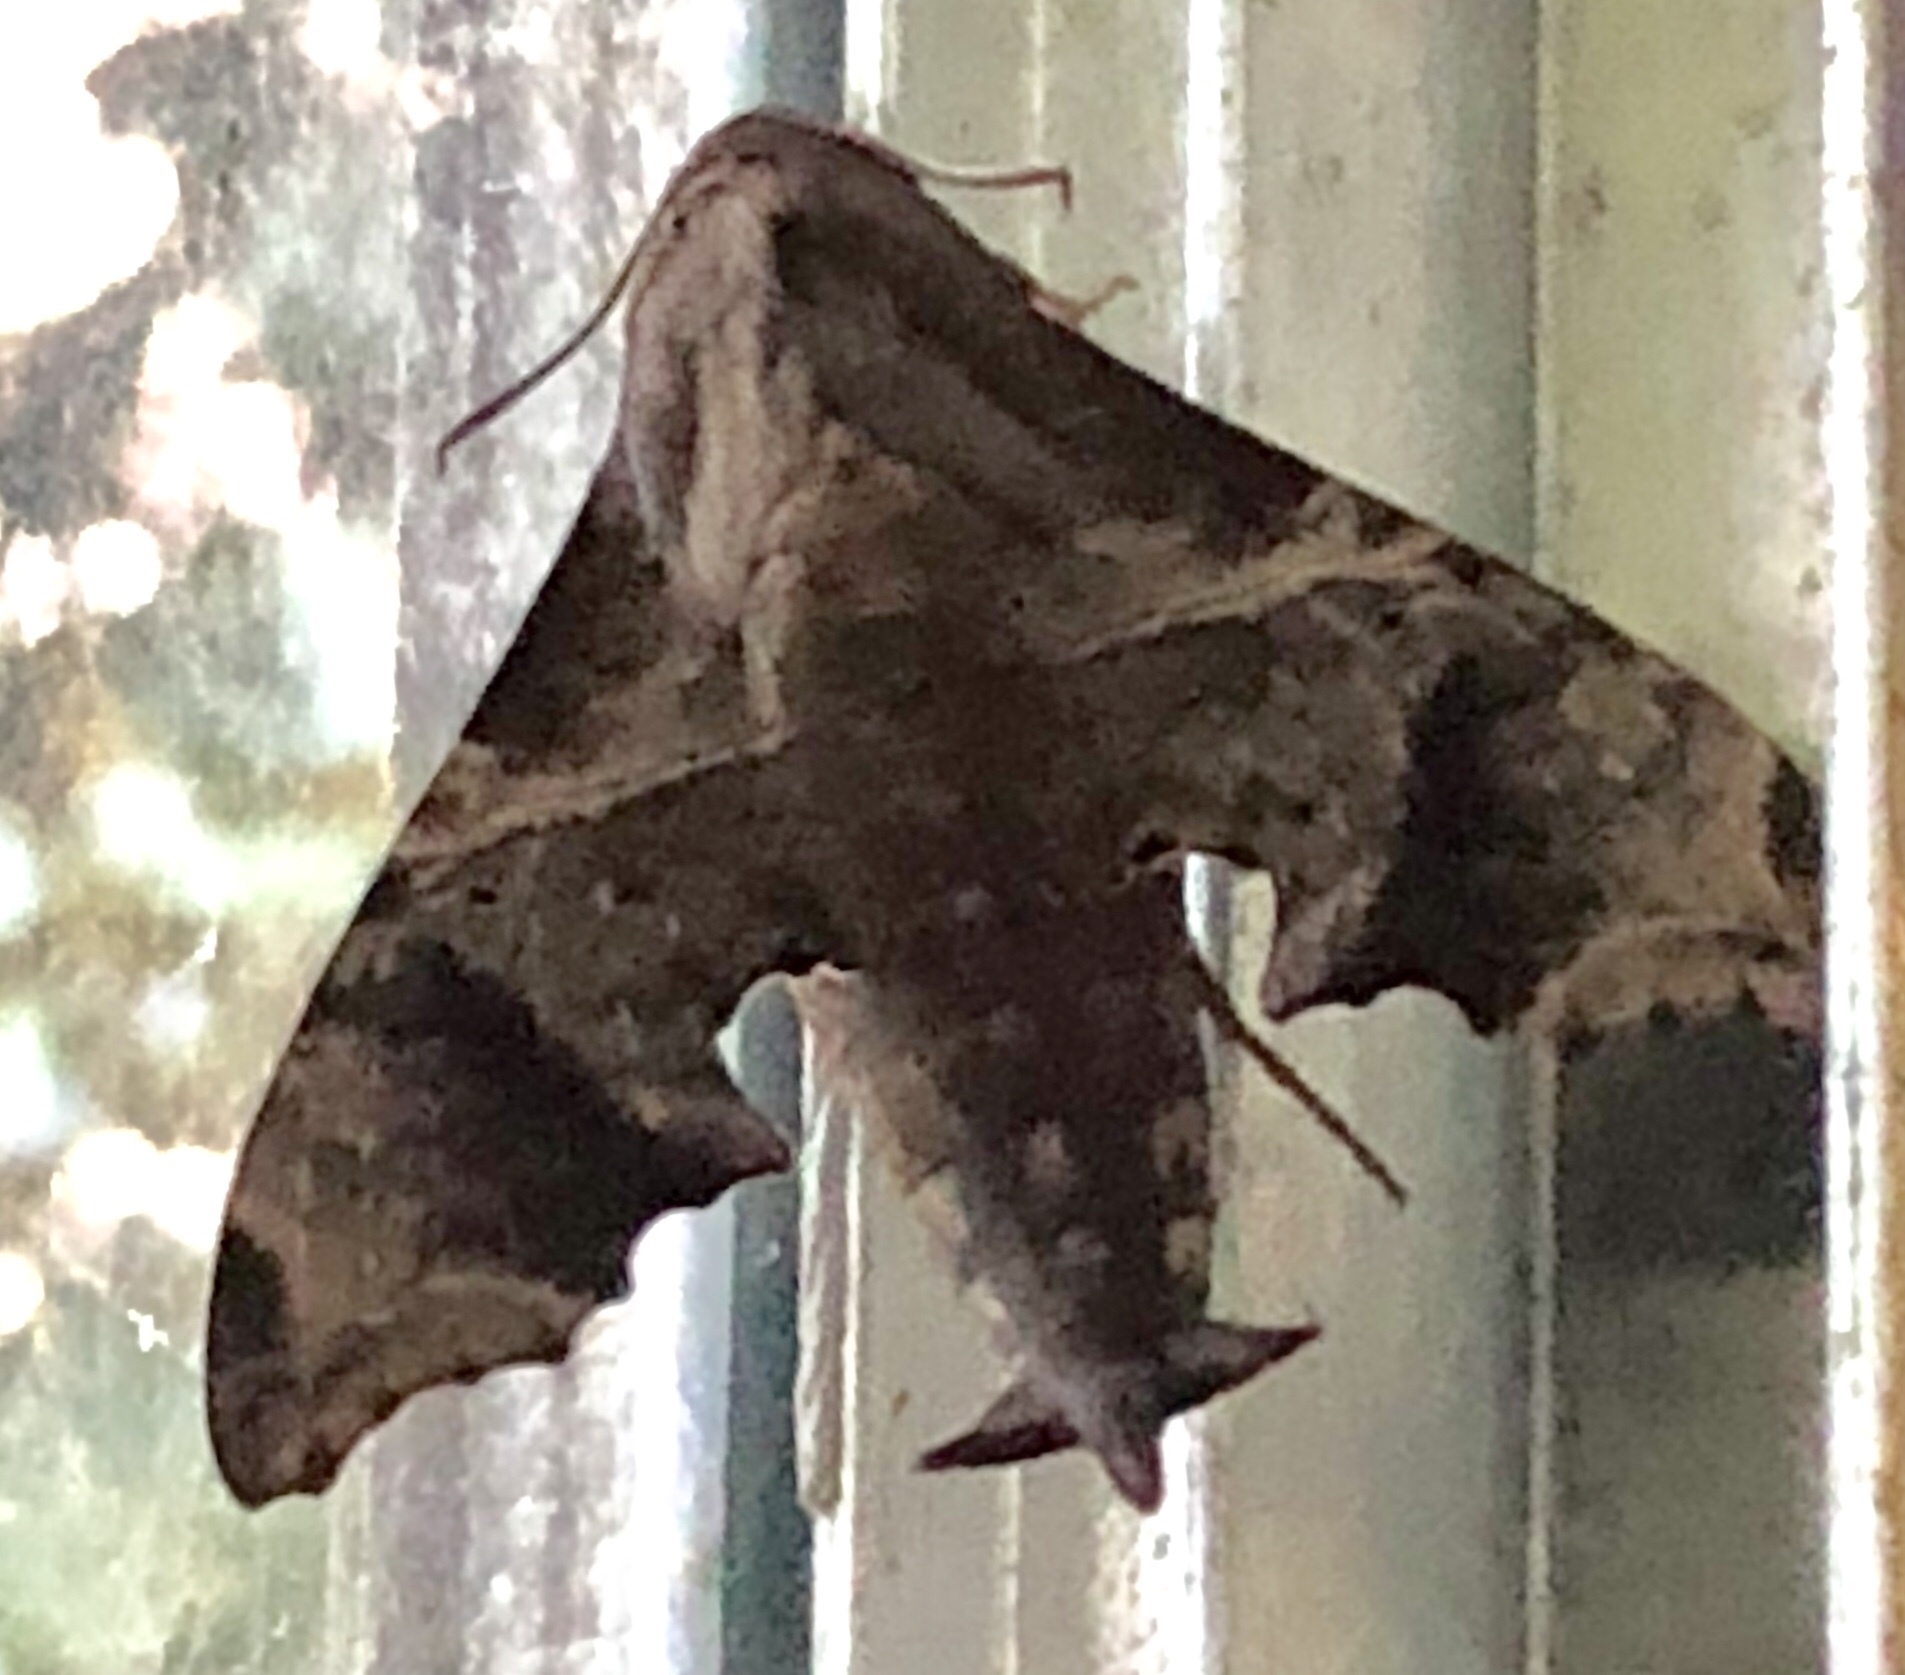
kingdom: Animalia
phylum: Arthropoda
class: Insecta
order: Lepidoptera
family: Sphingidae
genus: Enyo
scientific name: Enyo lugubris
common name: Mournful sphinx
